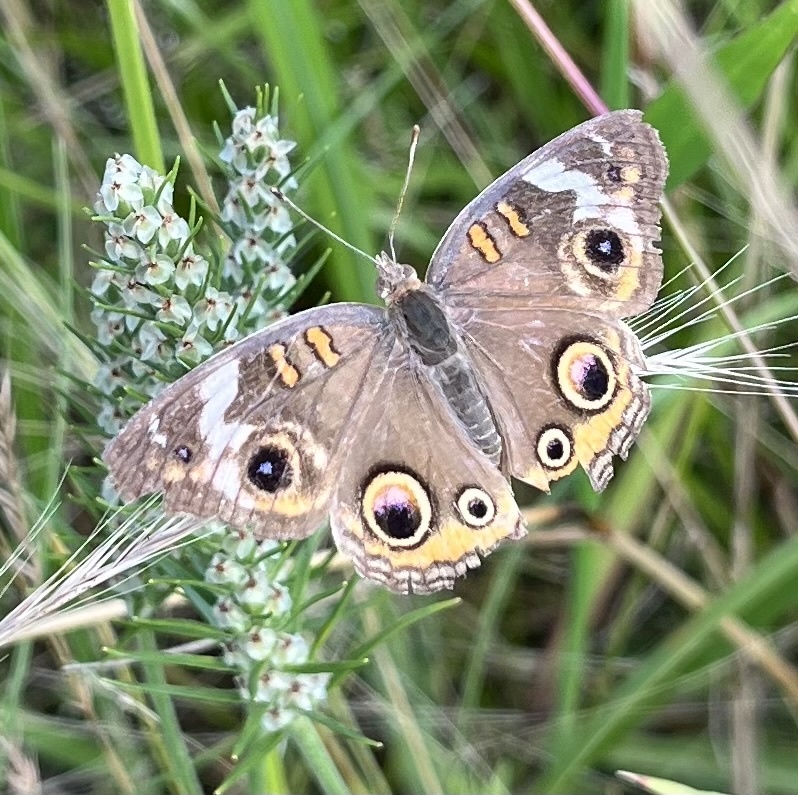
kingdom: Animalia
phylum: Arthropoda
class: Insecta
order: Lepidoptera
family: Nymphalidae
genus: Junonia
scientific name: Junonia coenia
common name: Common buckeye
